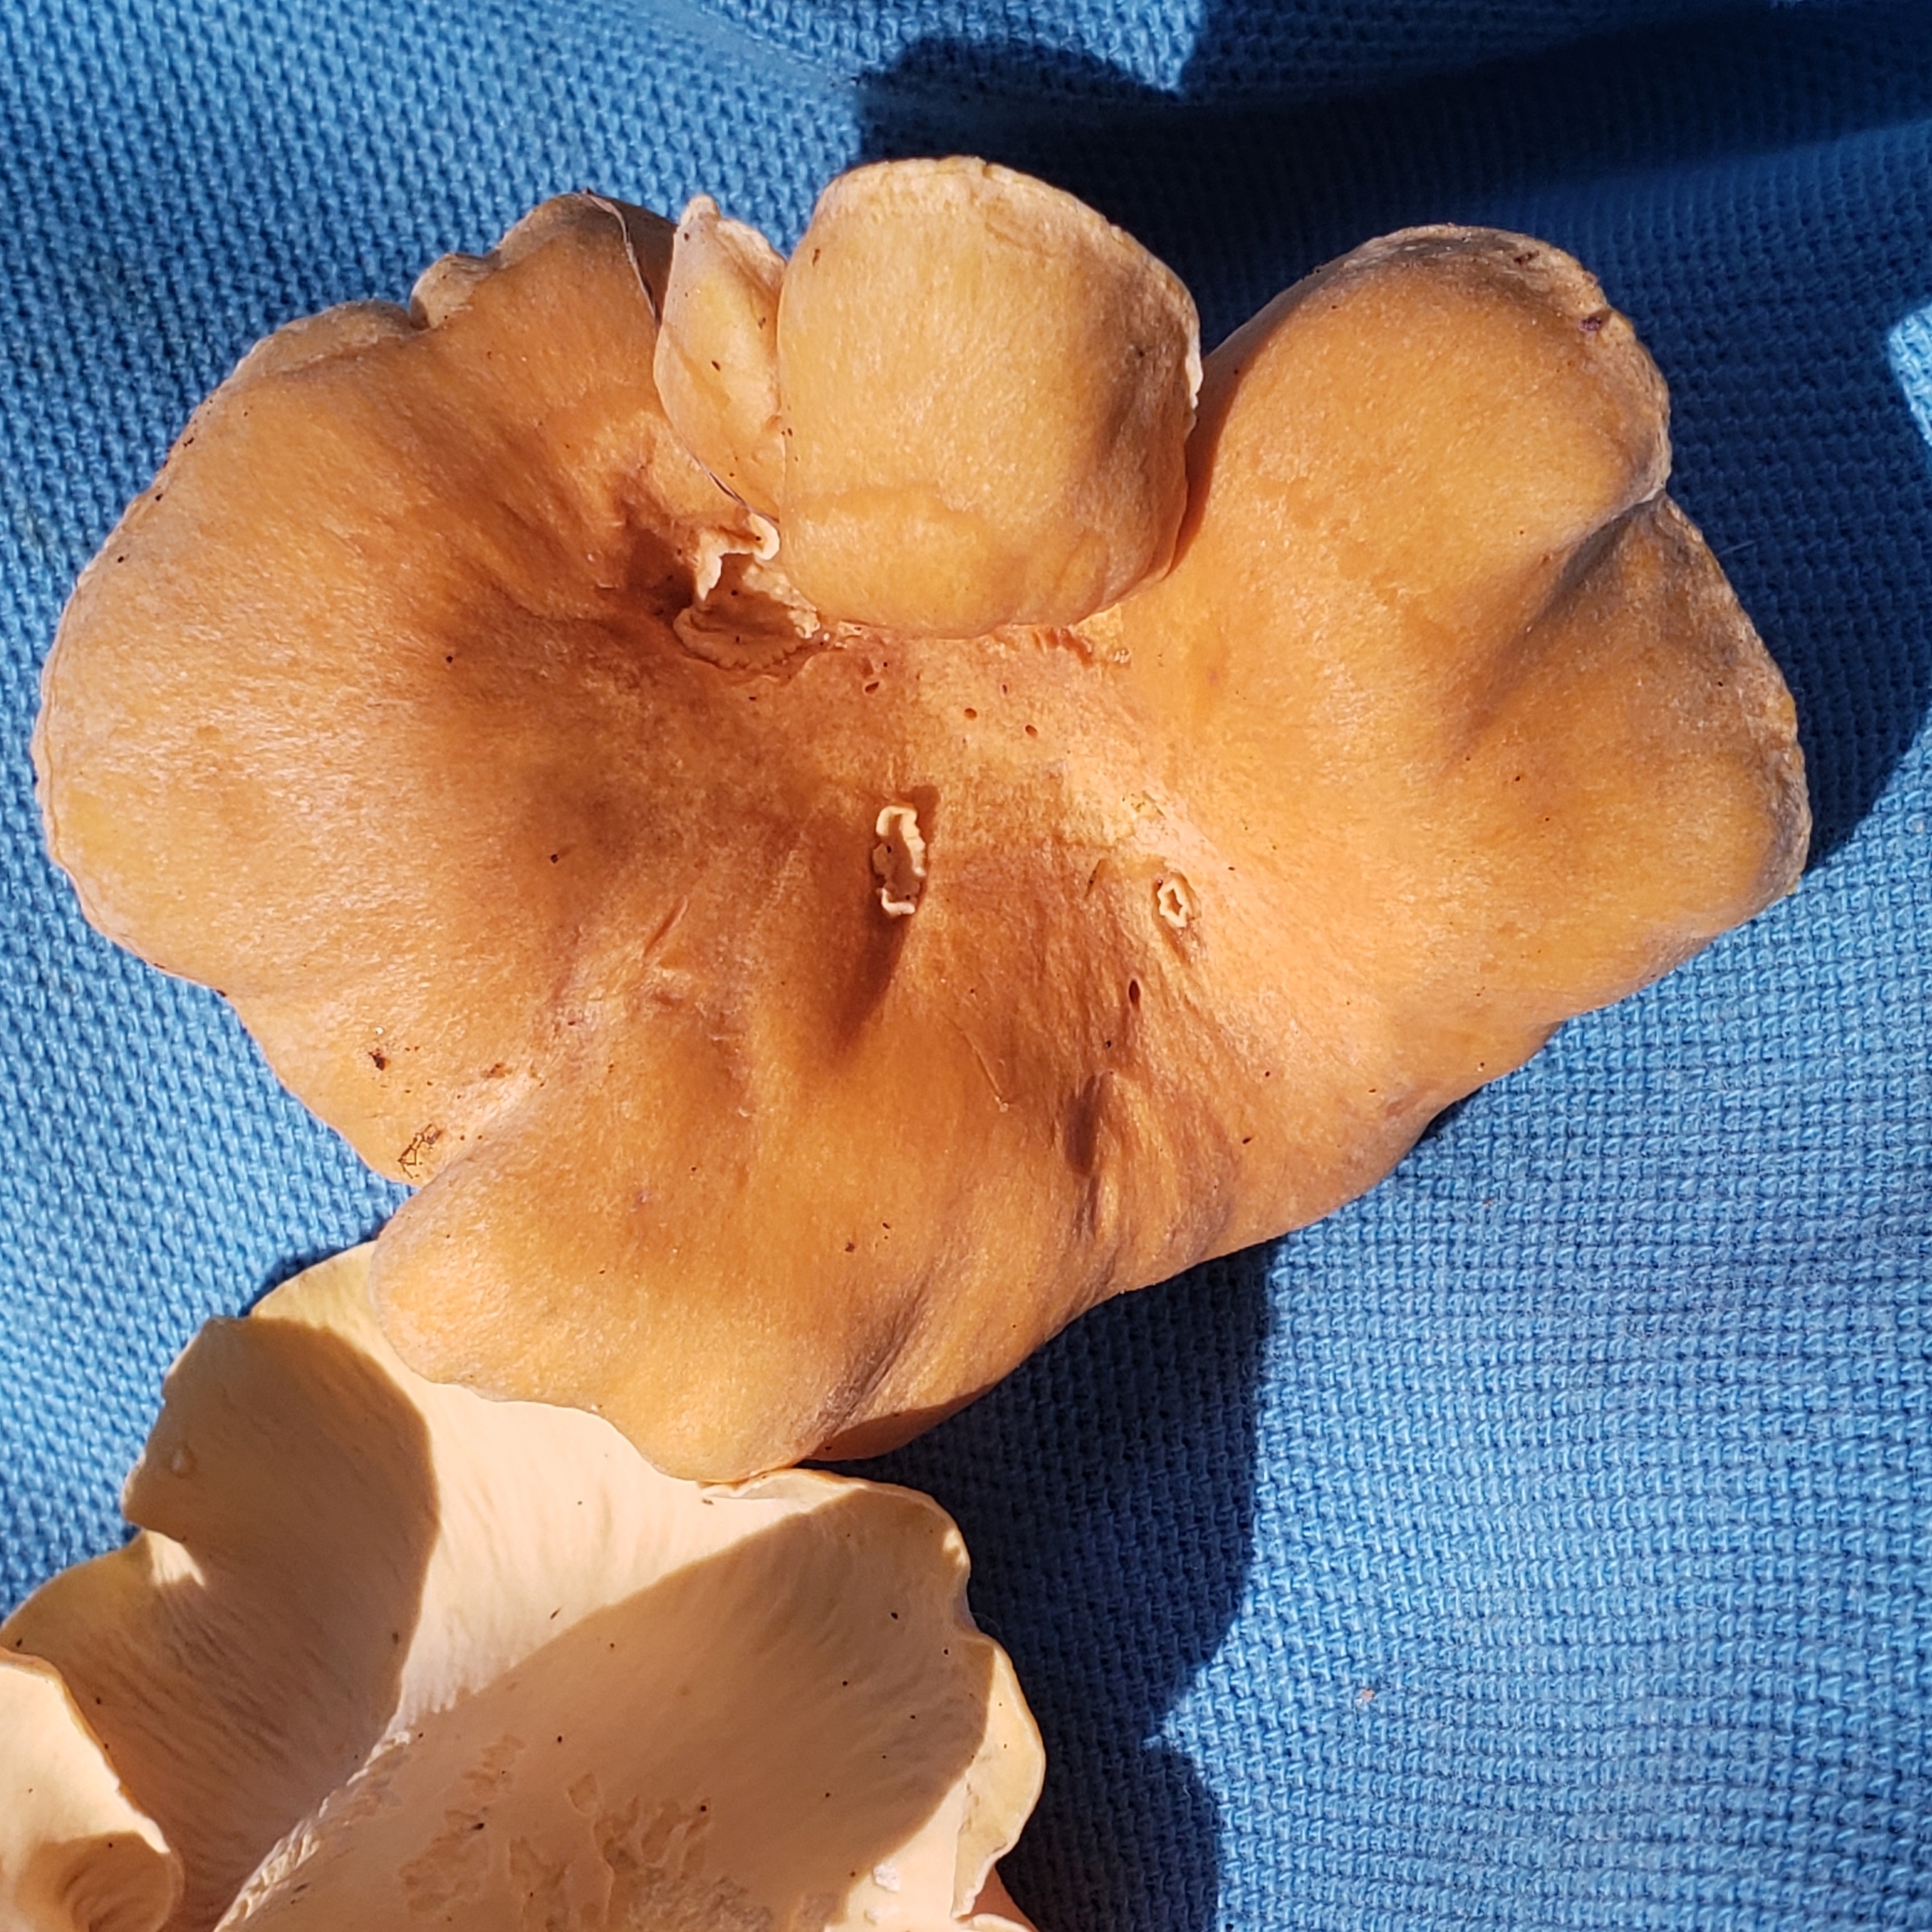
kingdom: Fungi
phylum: Basidiomycota
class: Agaricomycetes
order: Cantharellales
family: Hydnaceae
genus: Cantharellus
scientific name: Cantharellus lateritius
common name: Smooth chanterelle
